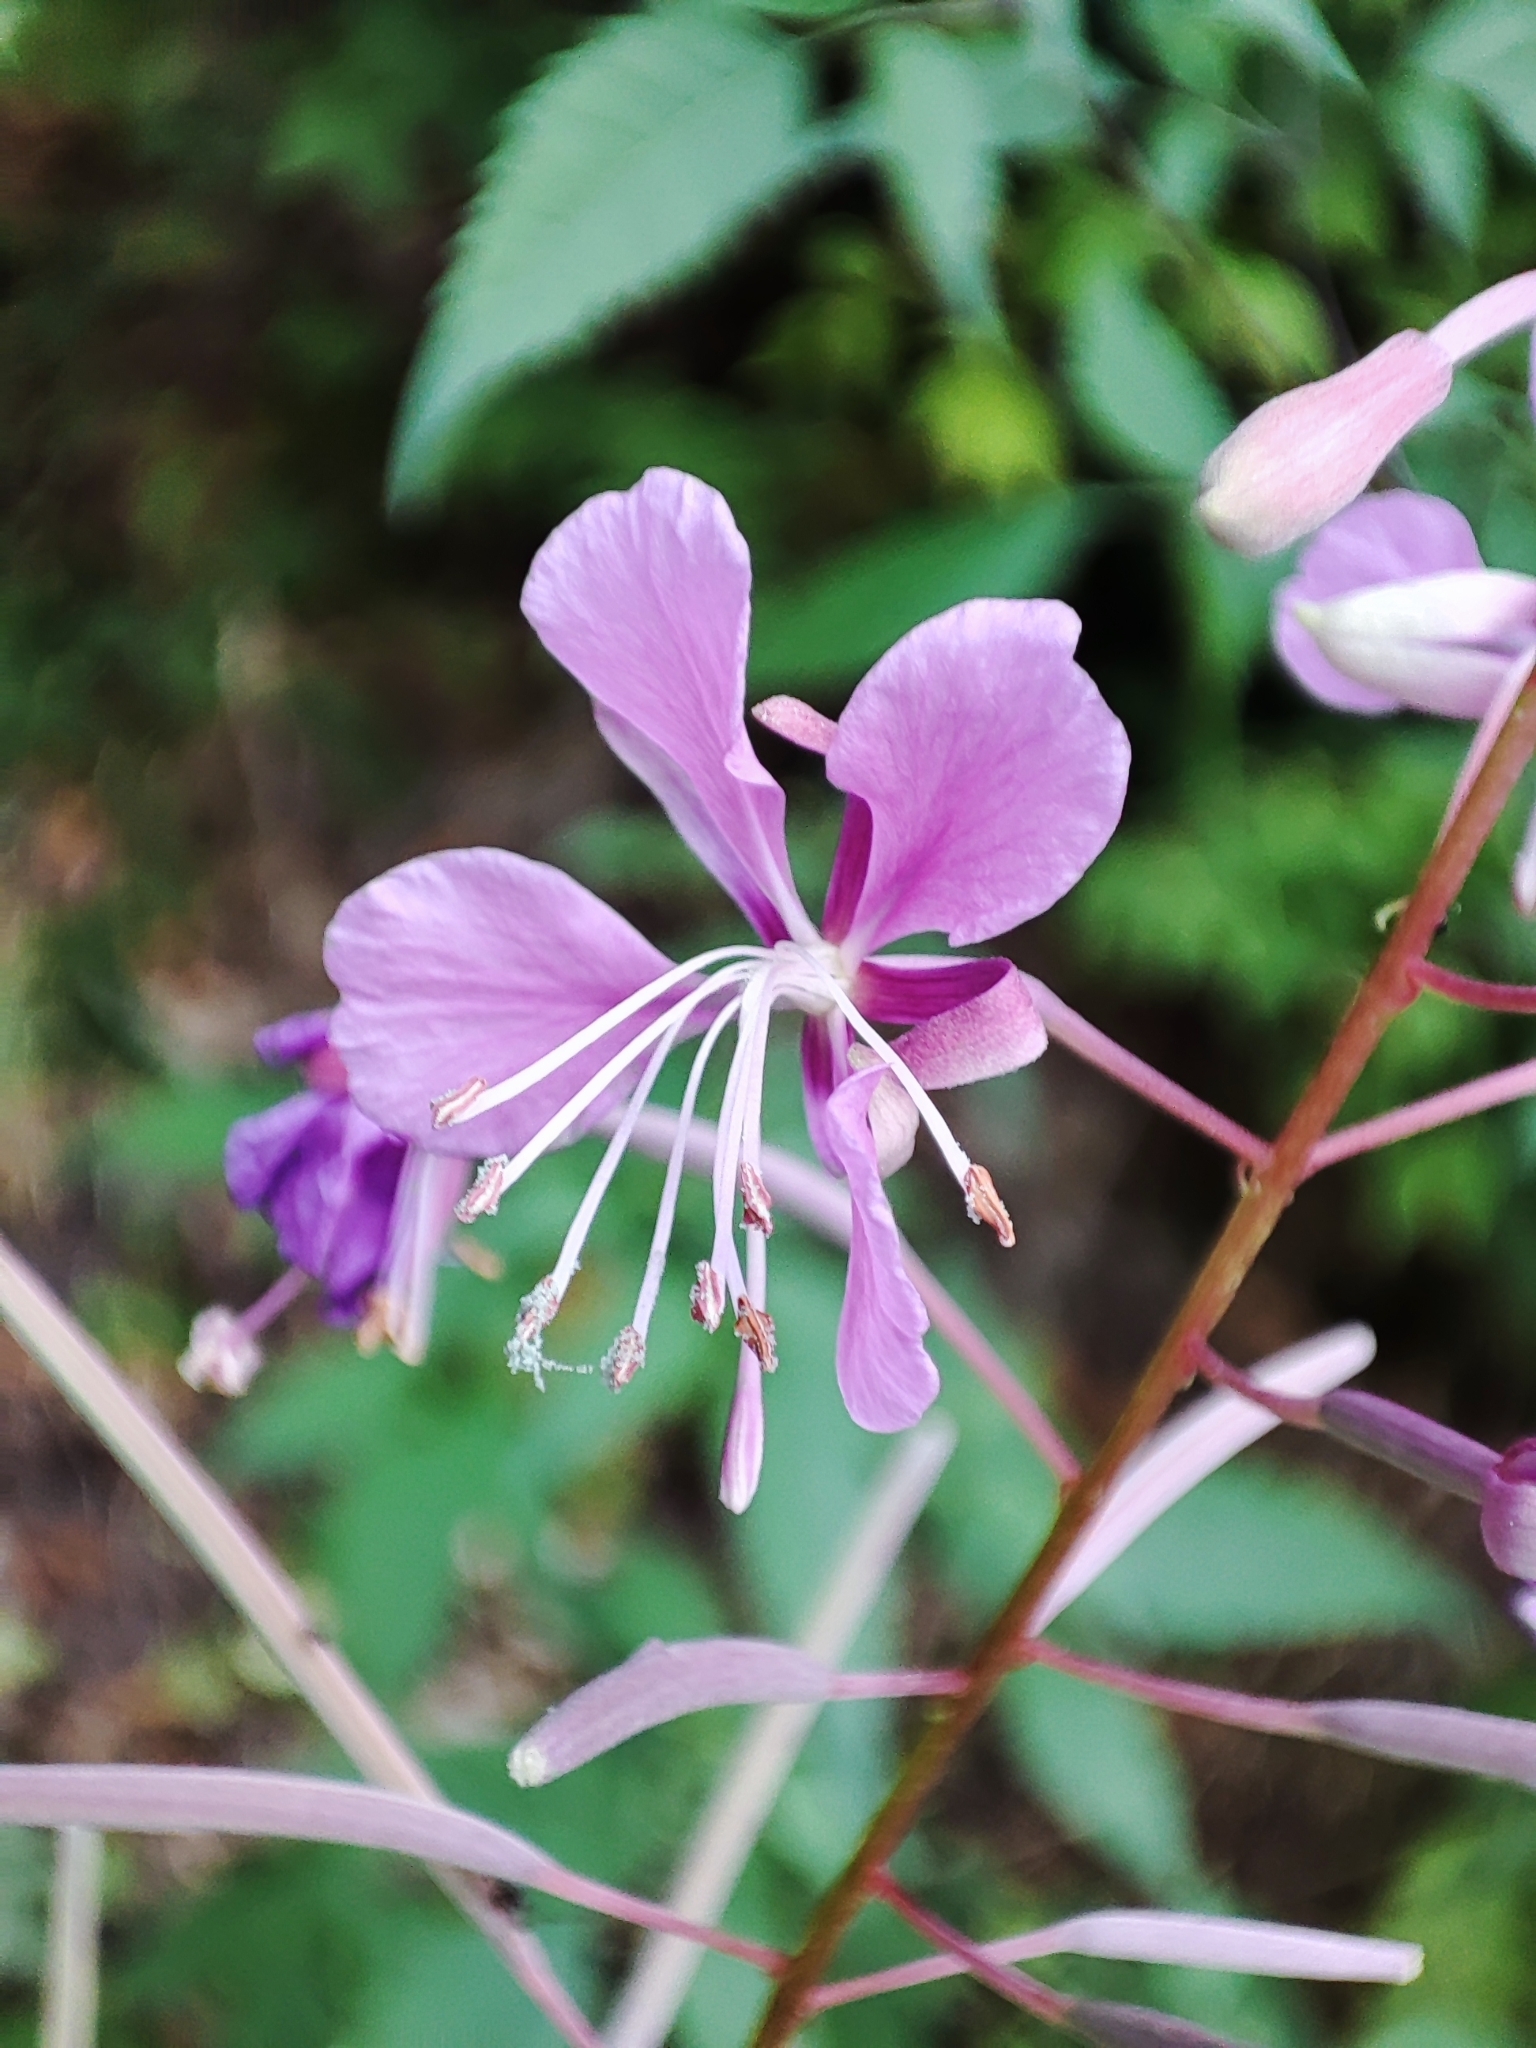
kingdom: Plantae
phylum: Tracheophyta
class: Magnoliopsida
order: Myrtales
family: Onagraceae
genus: Chamaenerion
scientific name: Chamaenerion angustifolium
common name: Fireweed
